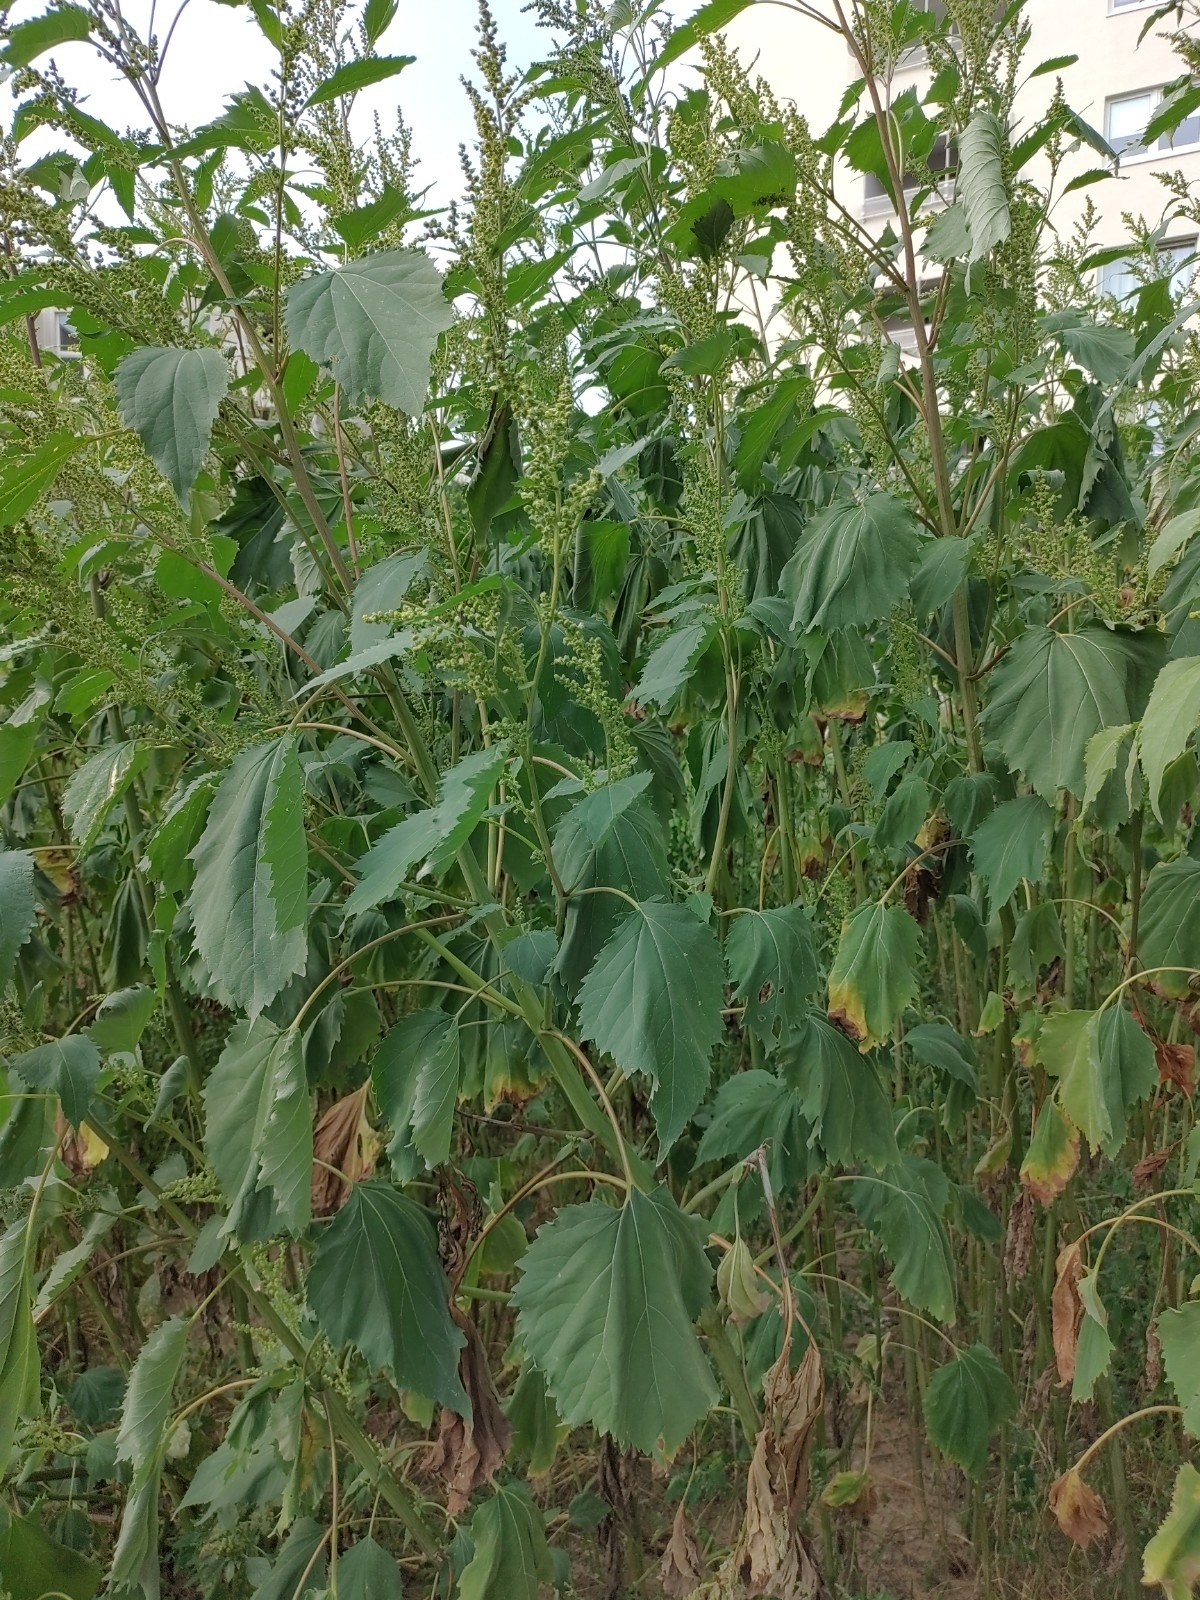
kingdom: Plantae
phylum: Tracheophyta
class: Magnoliopsida
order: Asterales
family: Asteraceae
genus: Cyclachaena
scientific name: Cyclachaena xanthiifolia
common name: Giant sumpweed
